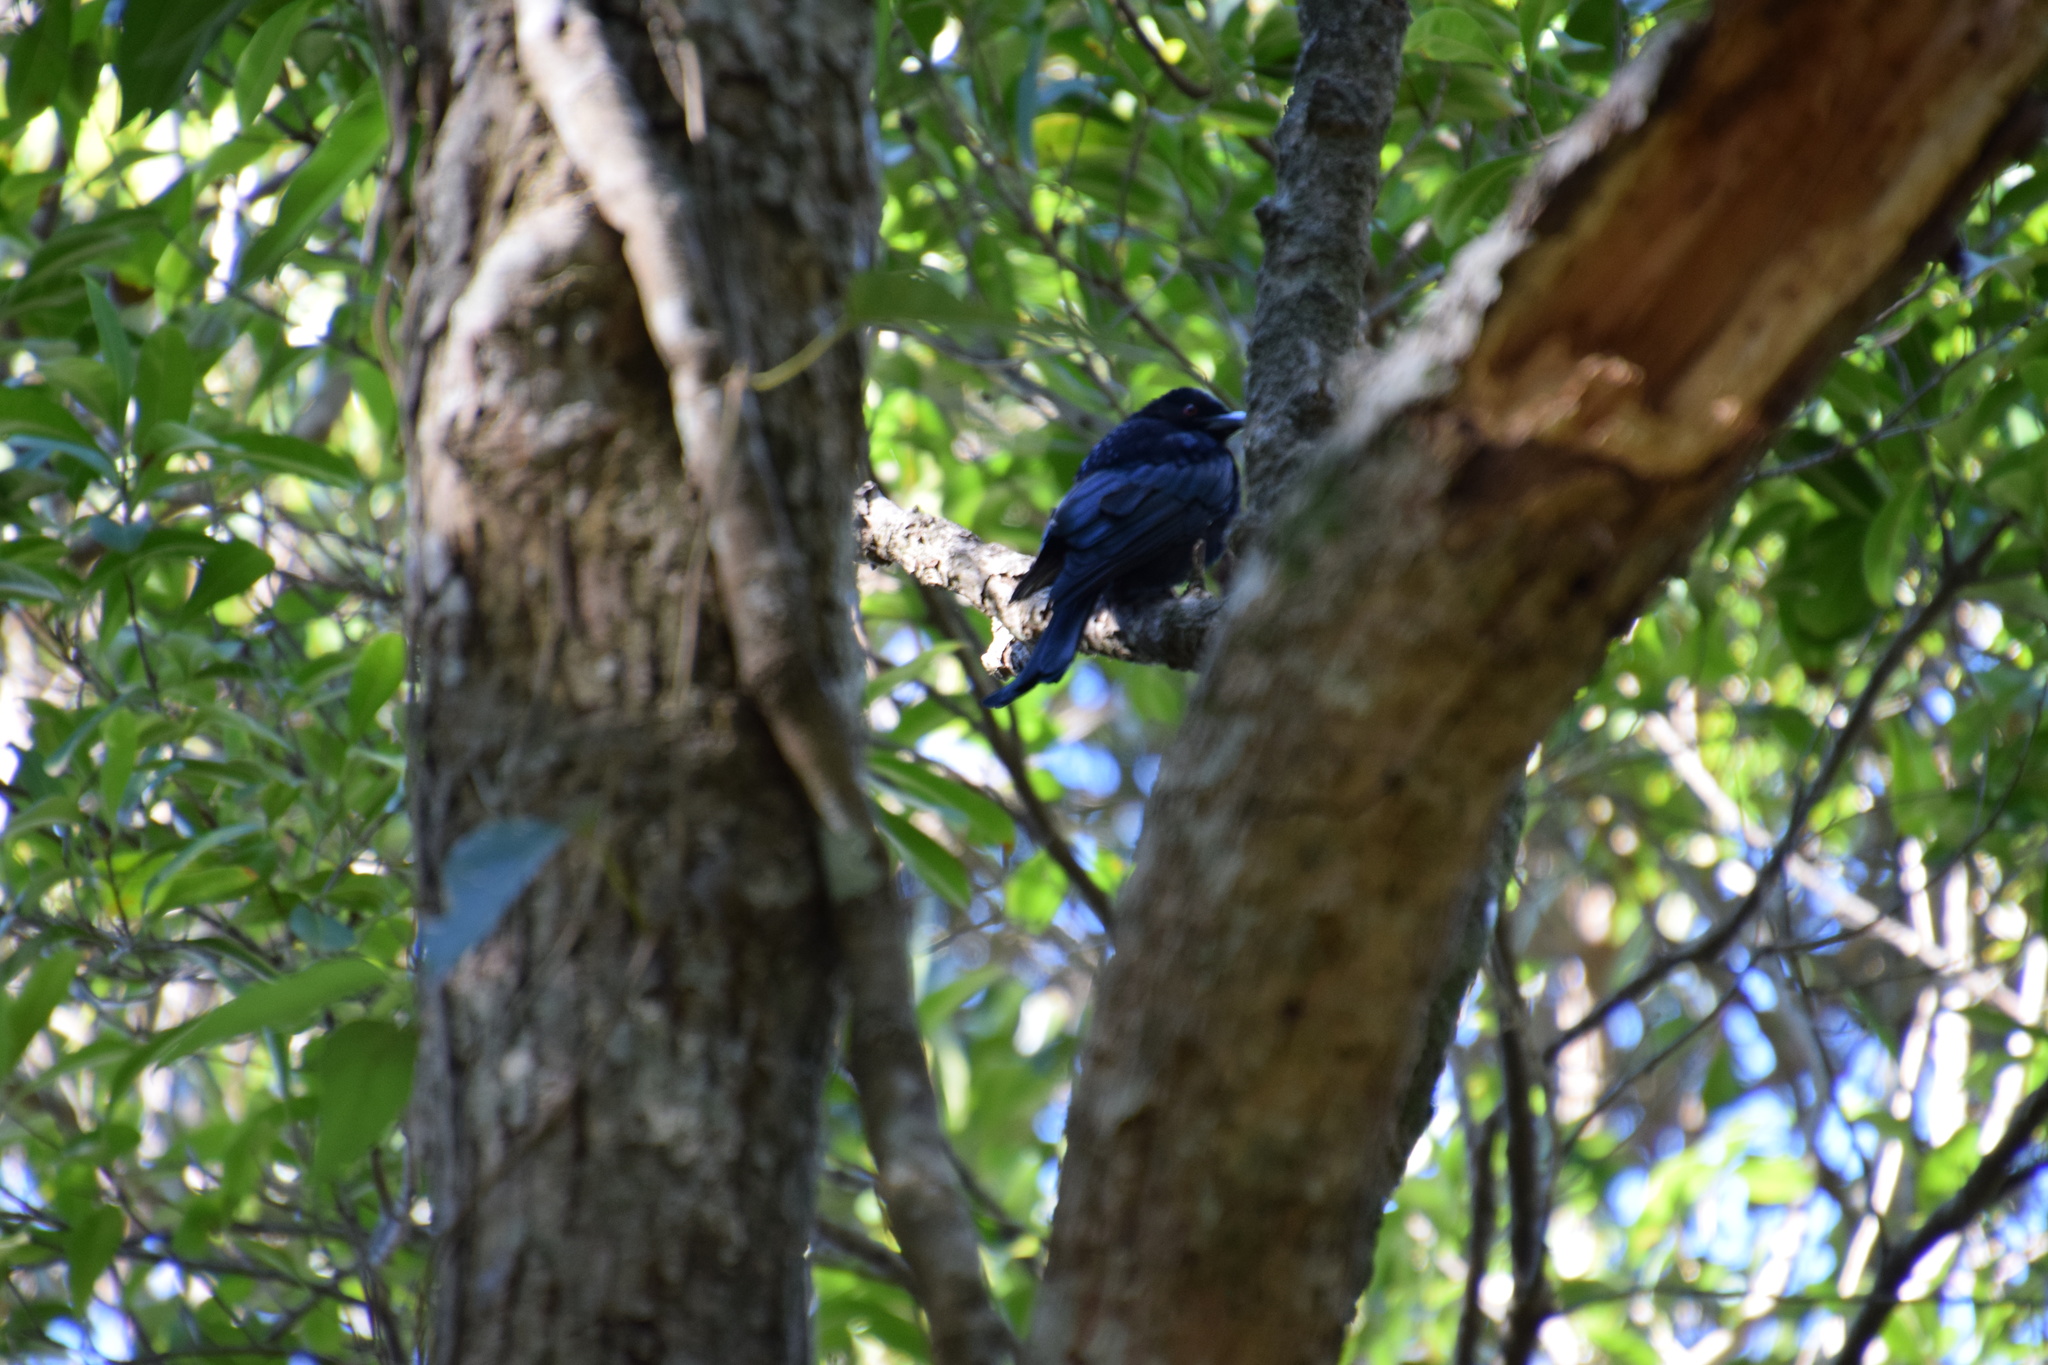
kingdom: Animalia
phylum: Chordata
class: Aves
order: Passeriformes
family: Dicruridae
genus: Dicrurus
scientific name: Dicrurus bracteatus
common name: Spangled drongo
